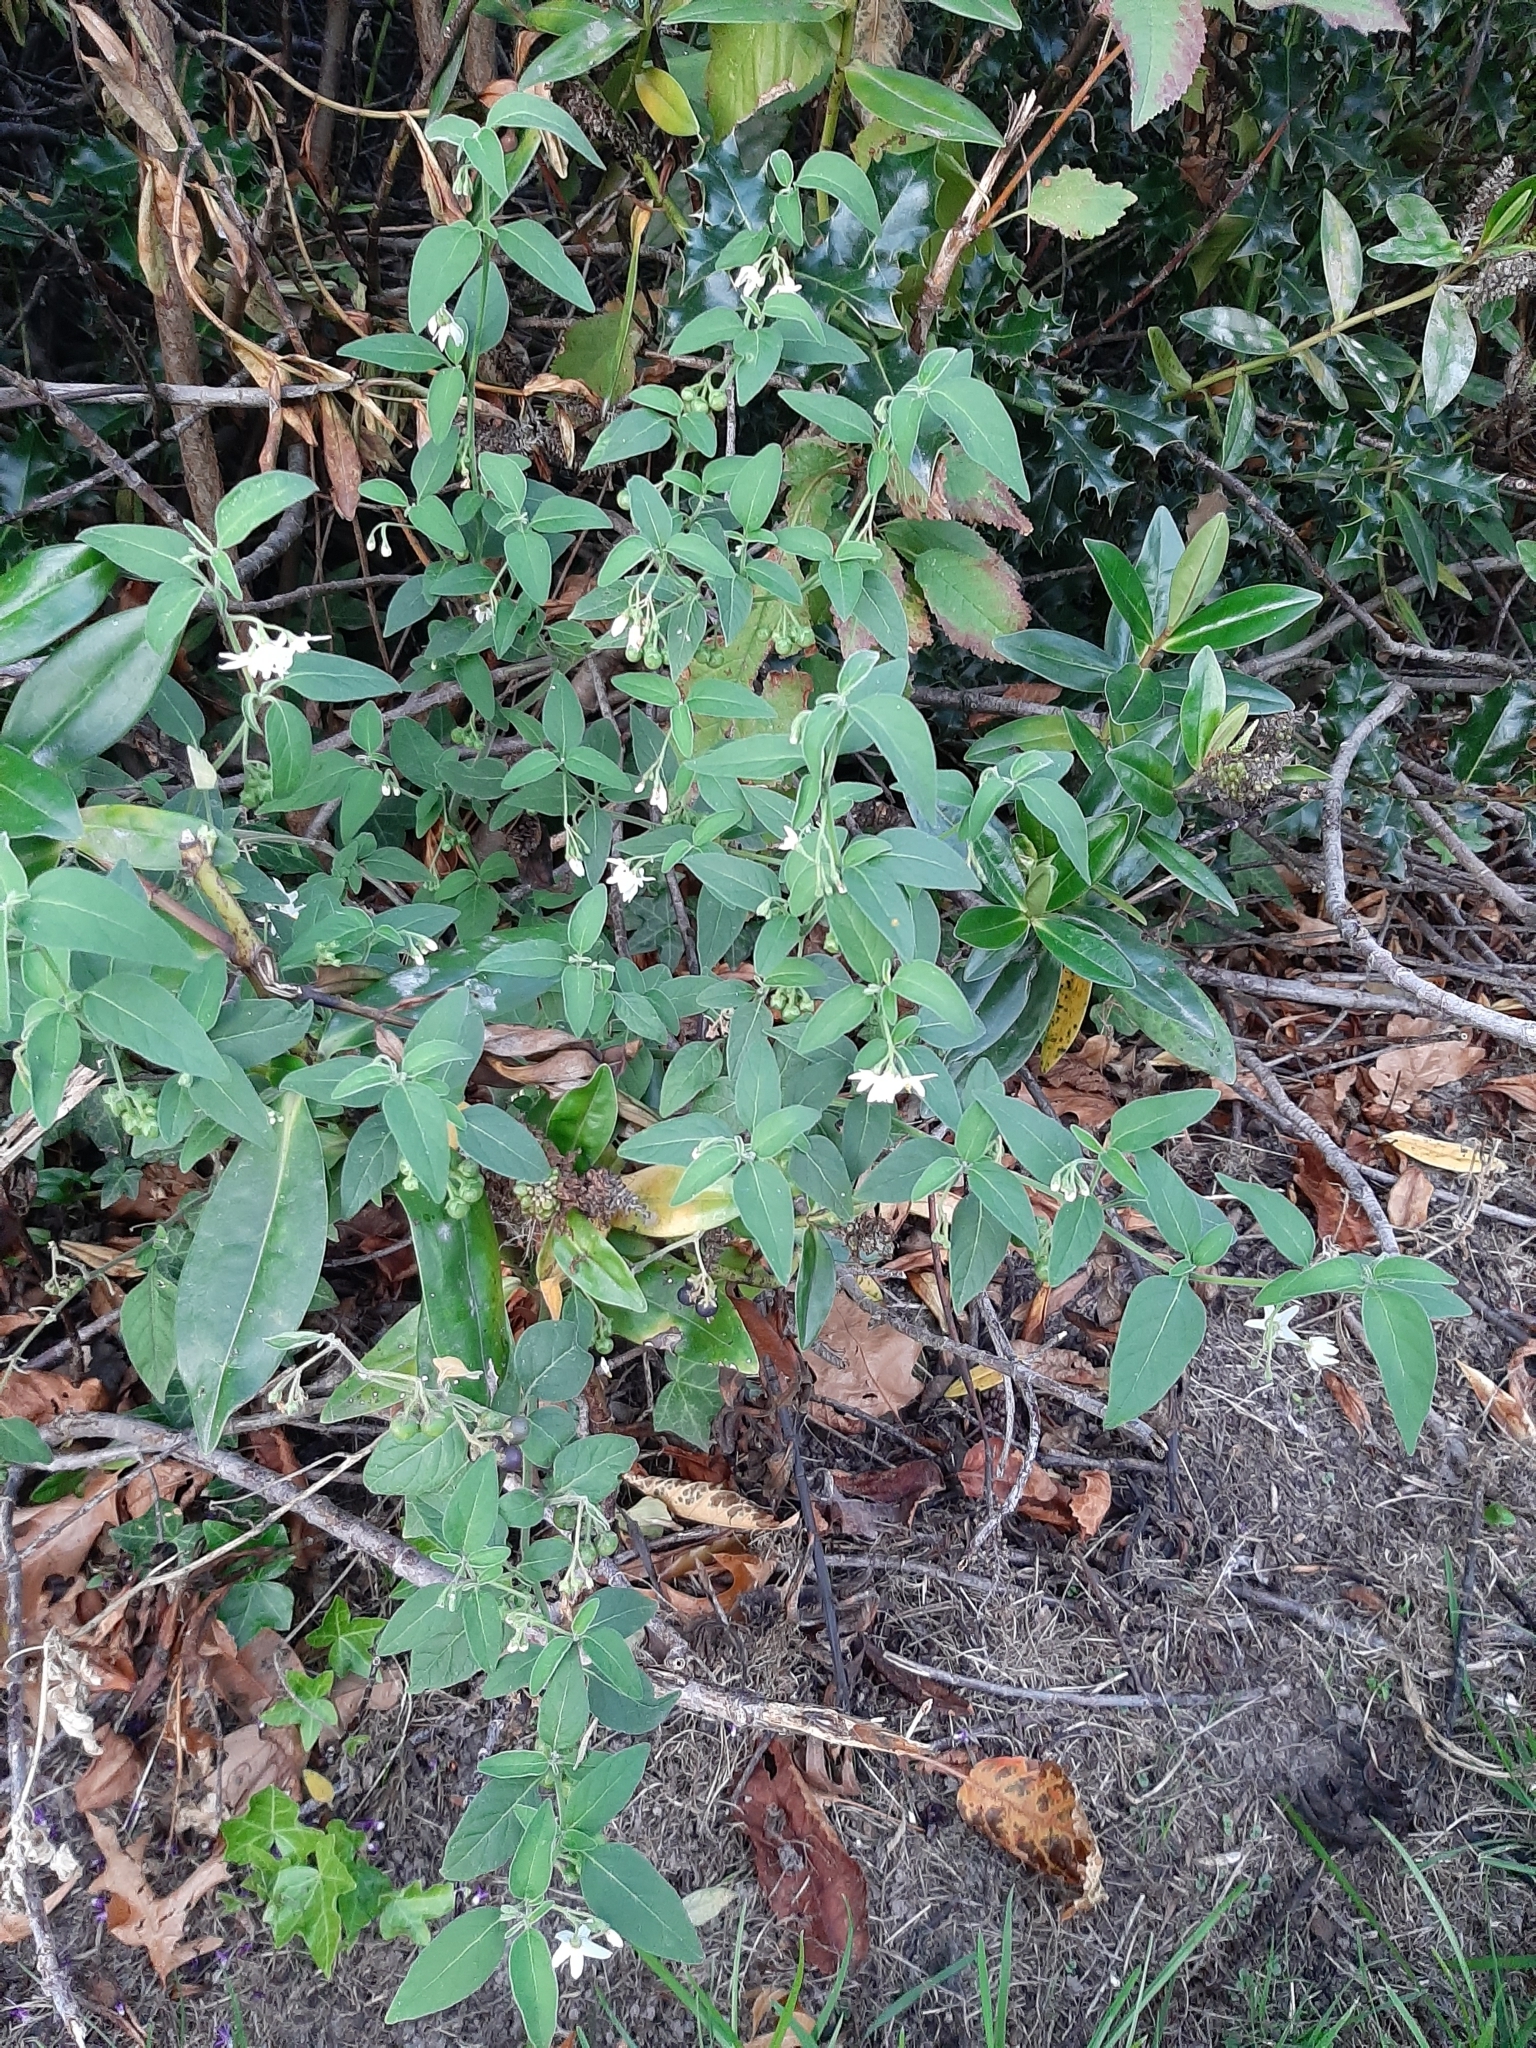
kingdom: Plantae
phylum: Tracheophyta
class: Magnoliopsida
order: Solanales
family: Solanaceae
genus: Solanum
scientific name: Solanum chenopodioides
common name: Tall nightshade
